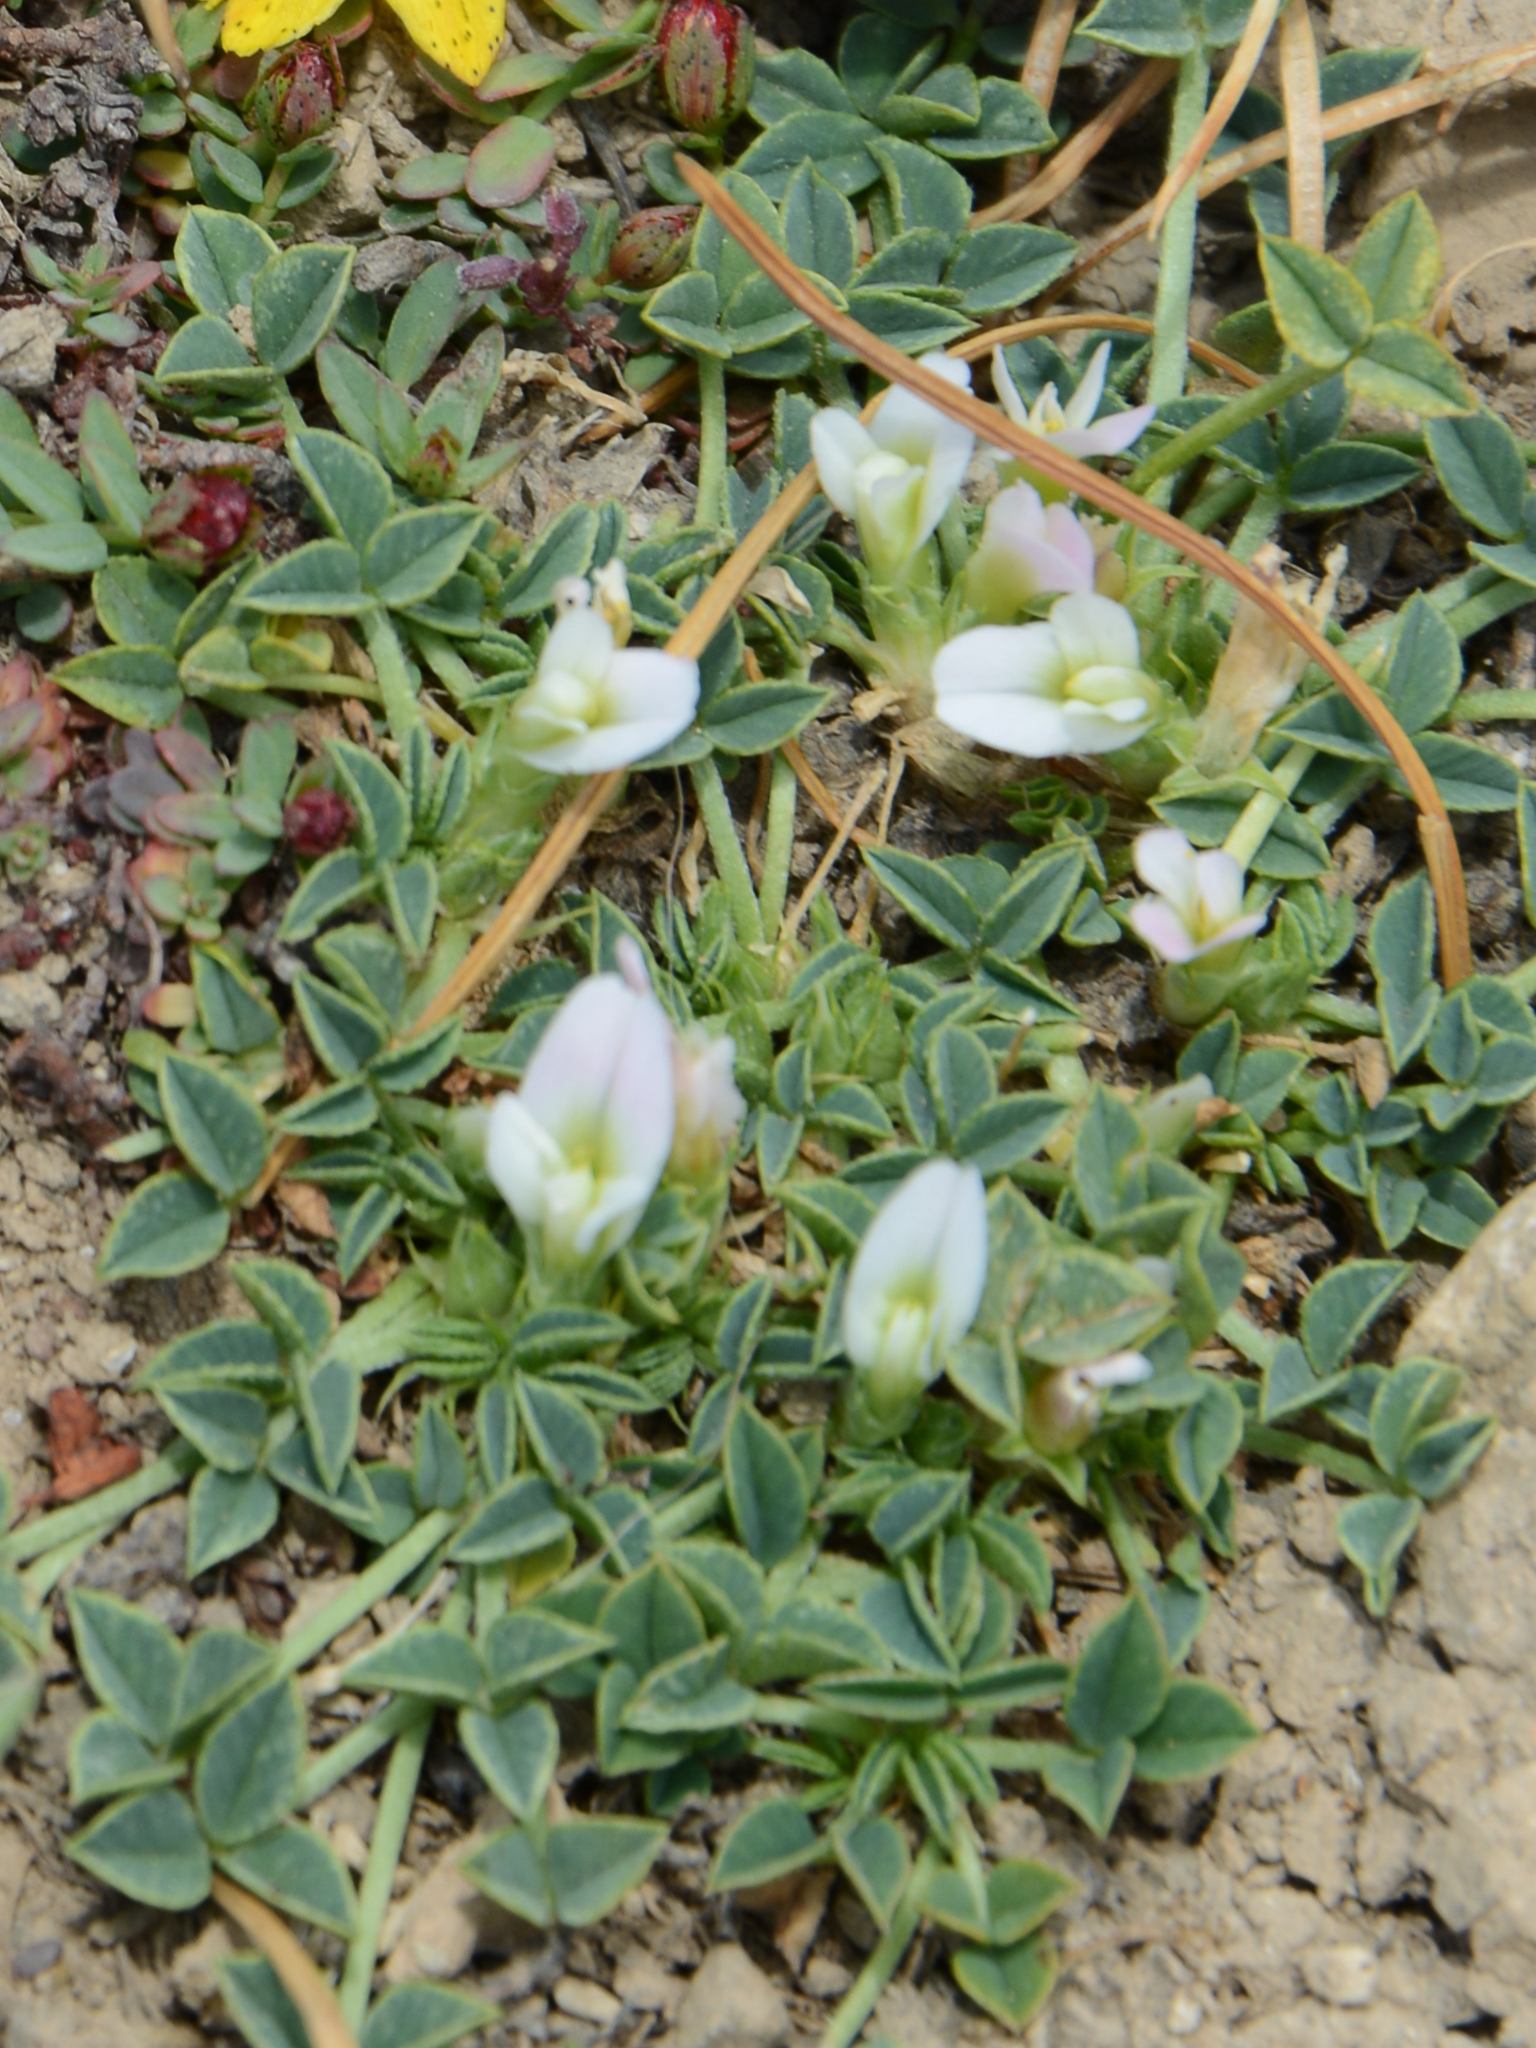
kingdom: Plantae
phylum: Tracheophyta
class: Magnoliopsida
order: Fabales
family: Fabaceae
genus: Trifolium
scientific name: Trifolium uniflorum
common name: One-flower clover
